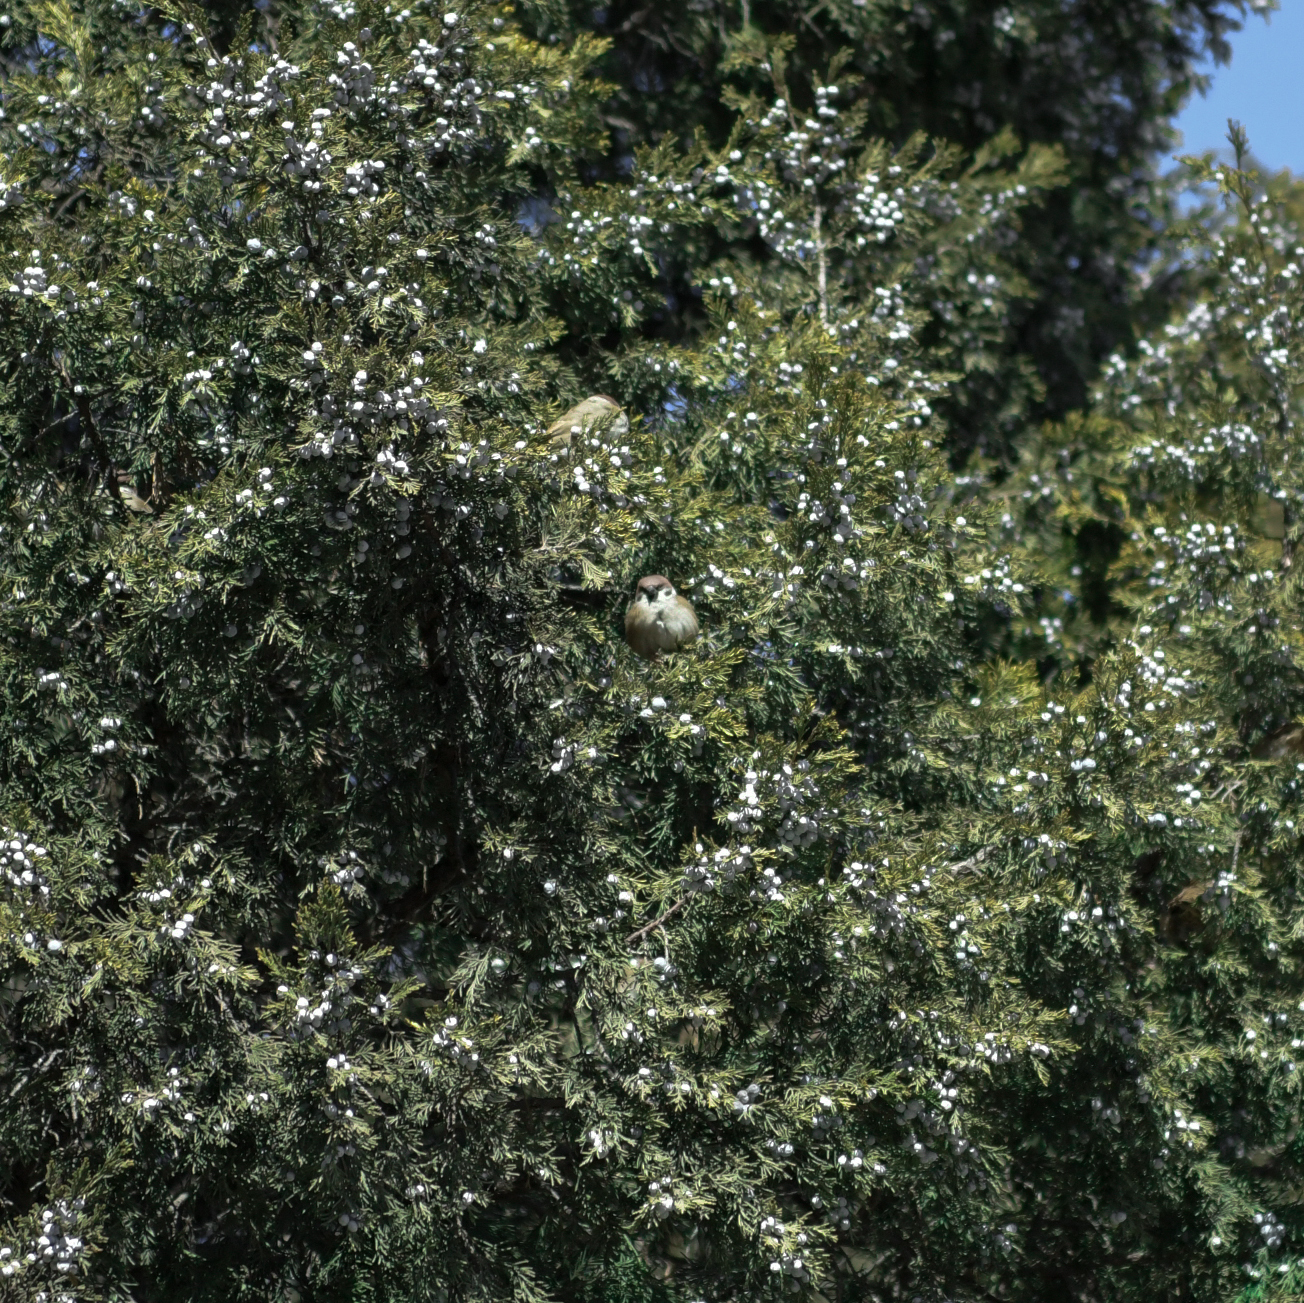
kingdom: Animalia
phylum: Chordata
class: Aves
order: Passeriformes
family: Passeridae
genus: Passer
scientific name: Passer montanus
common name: Eurasian tree sparrow
